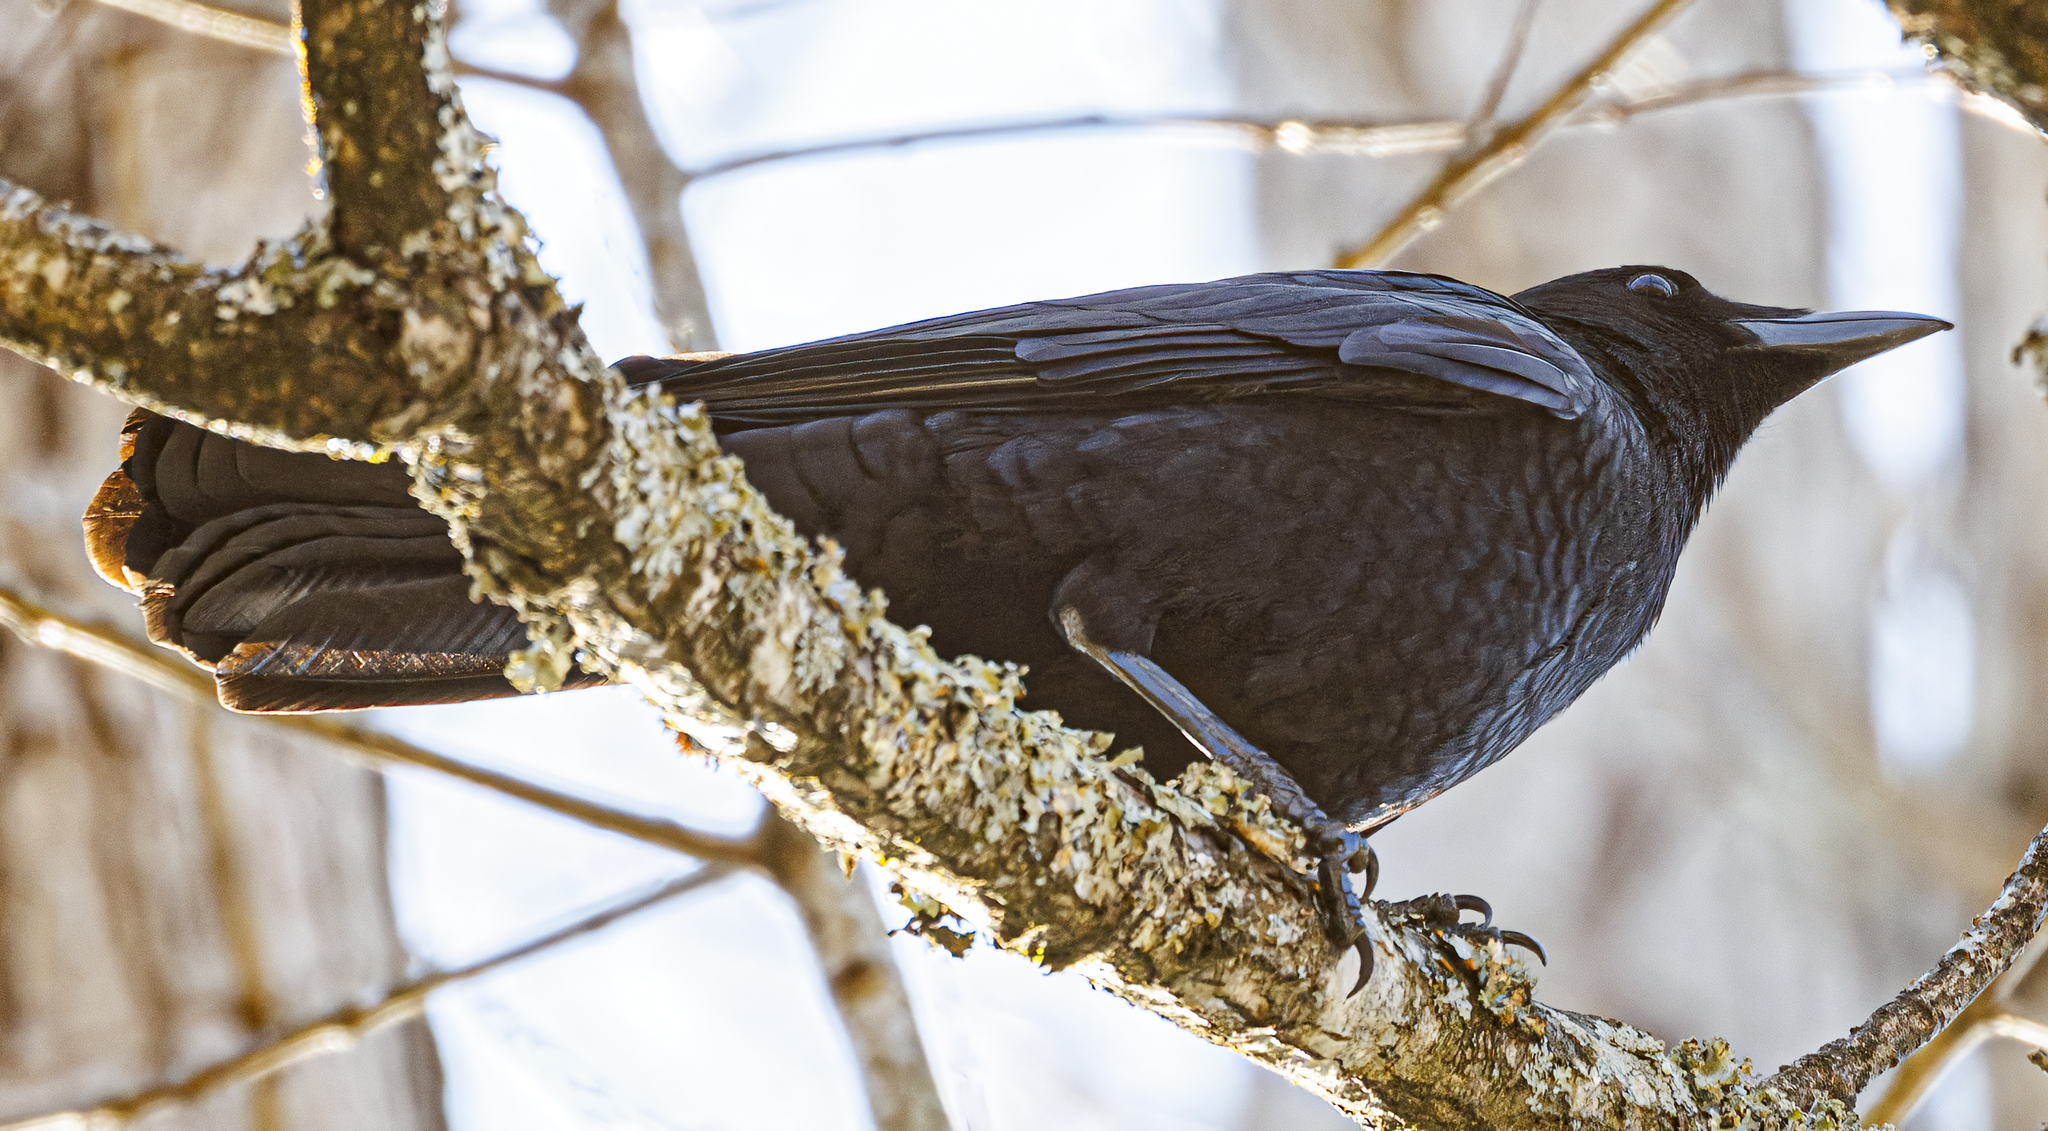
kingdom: Animalia
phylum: Chordata
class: Aves
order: Passeriformes
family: Corvidae
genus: Corvus
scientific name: Corvus
